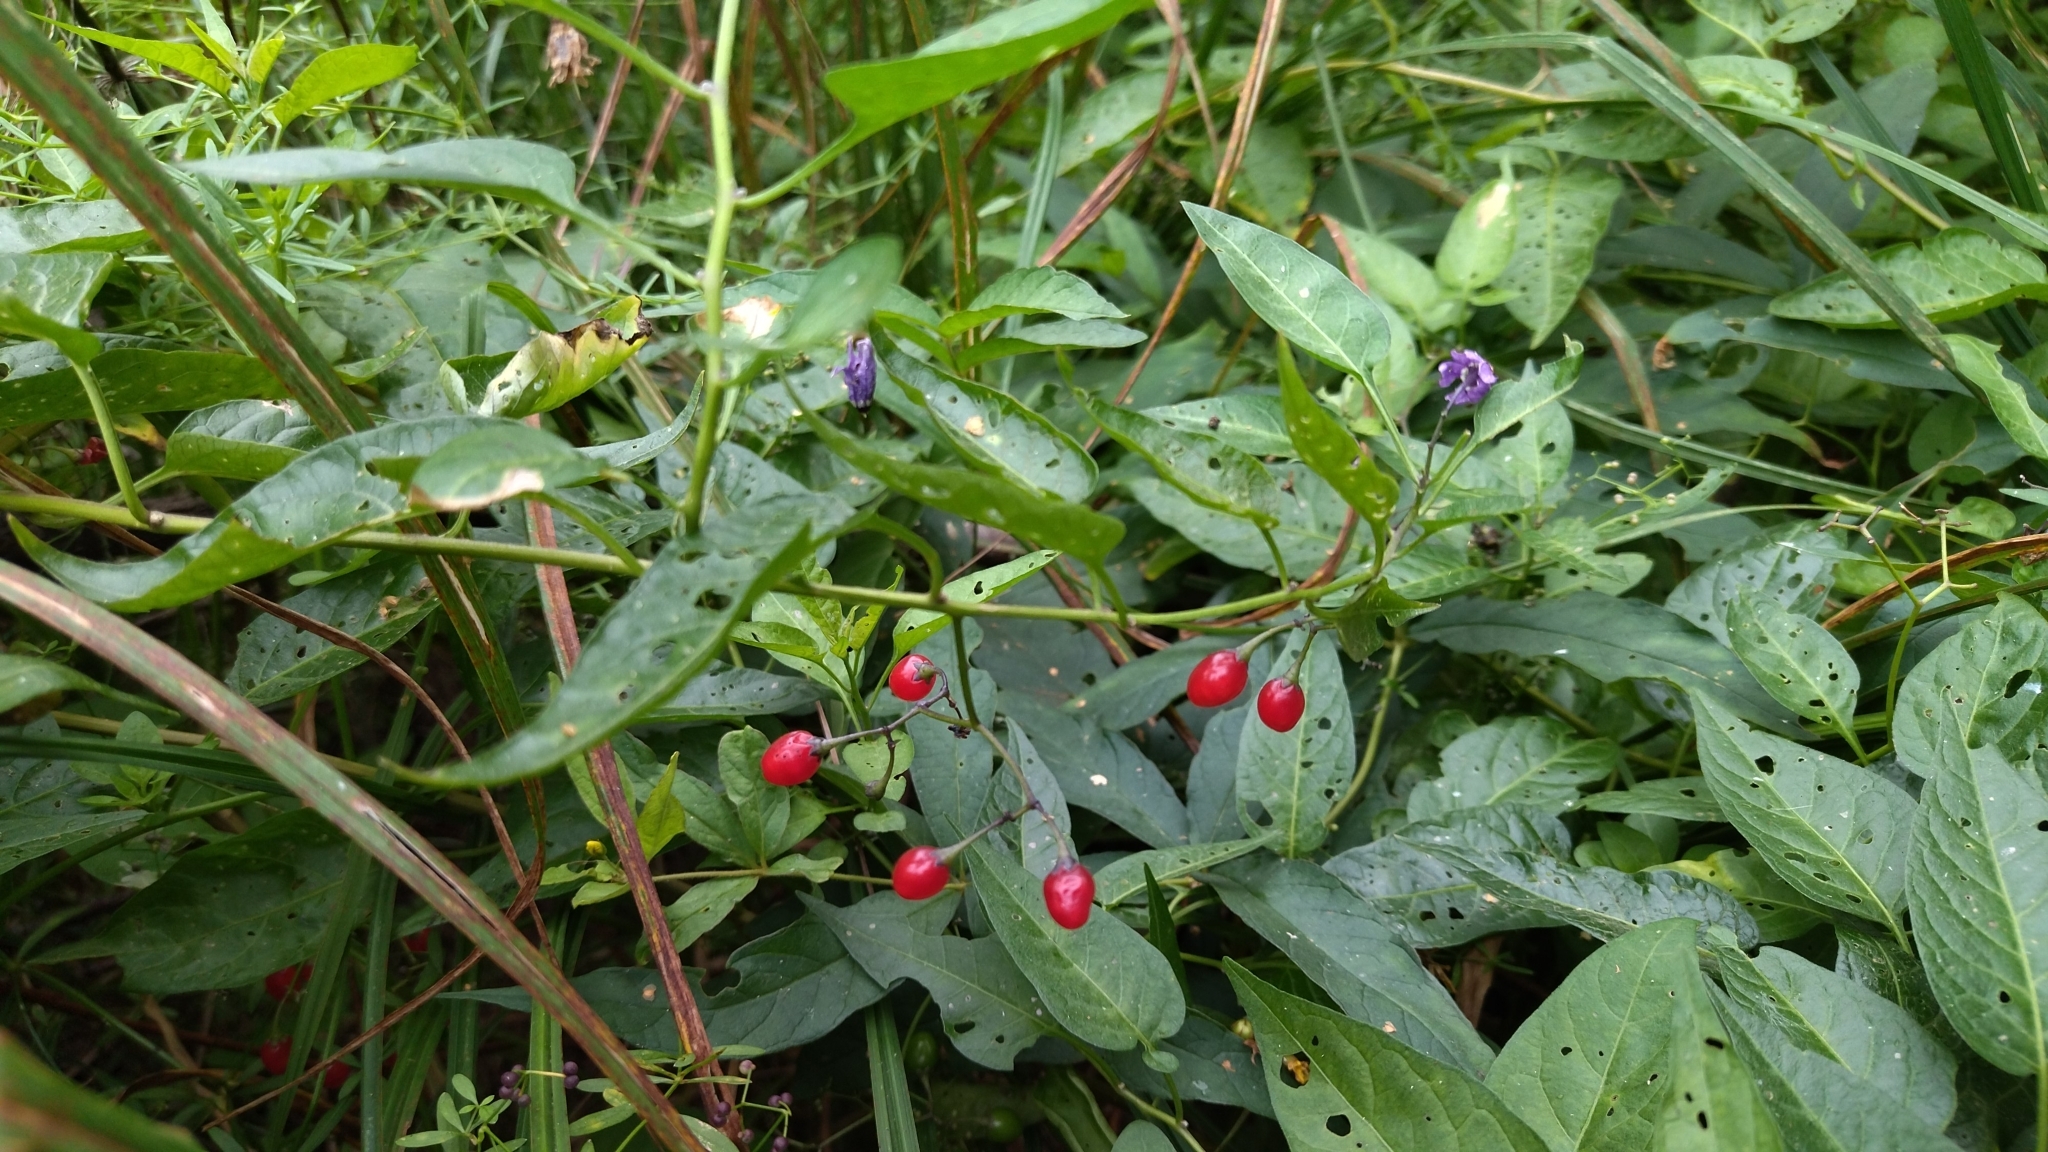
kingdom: Plantae
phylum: Tracheophyta
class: Magnoliopsida
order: Solanales
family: Solanaceae
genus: Solanum
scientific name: Solanum dulcamara
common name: Climbing nightshade
